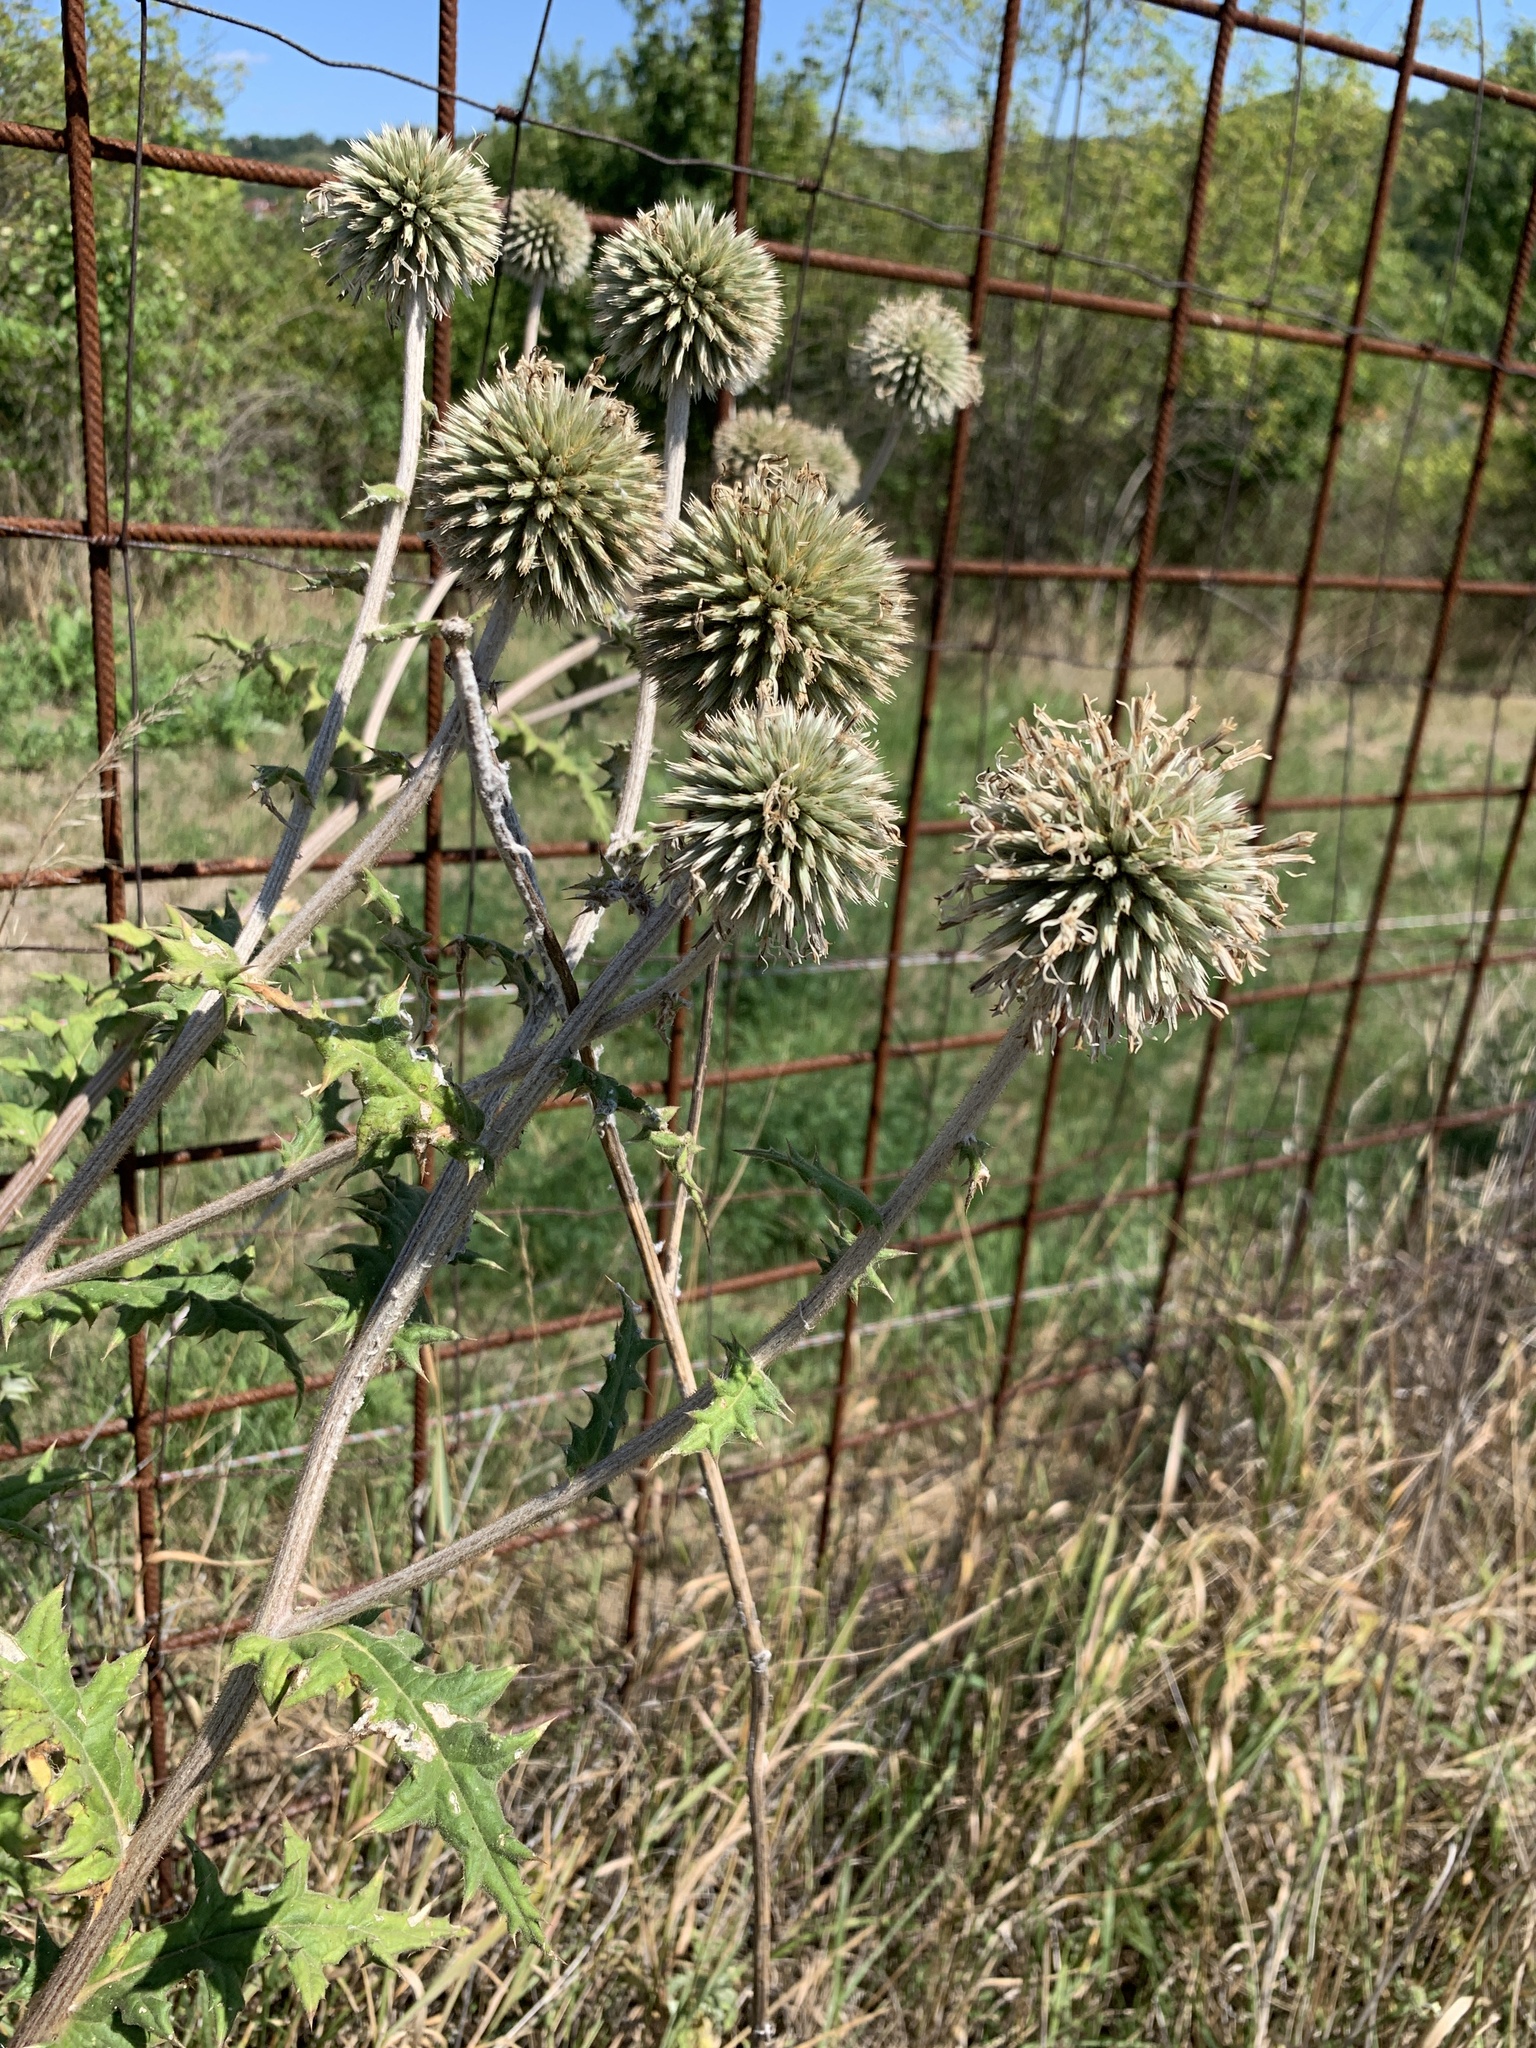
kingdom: Plantae
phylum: Tracheophyta
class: Magnoliopsida
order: Asterales
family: Asteraceae
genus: Echinops
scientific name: Echinops sphaerocephalus
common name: Glandular globe-thistle
